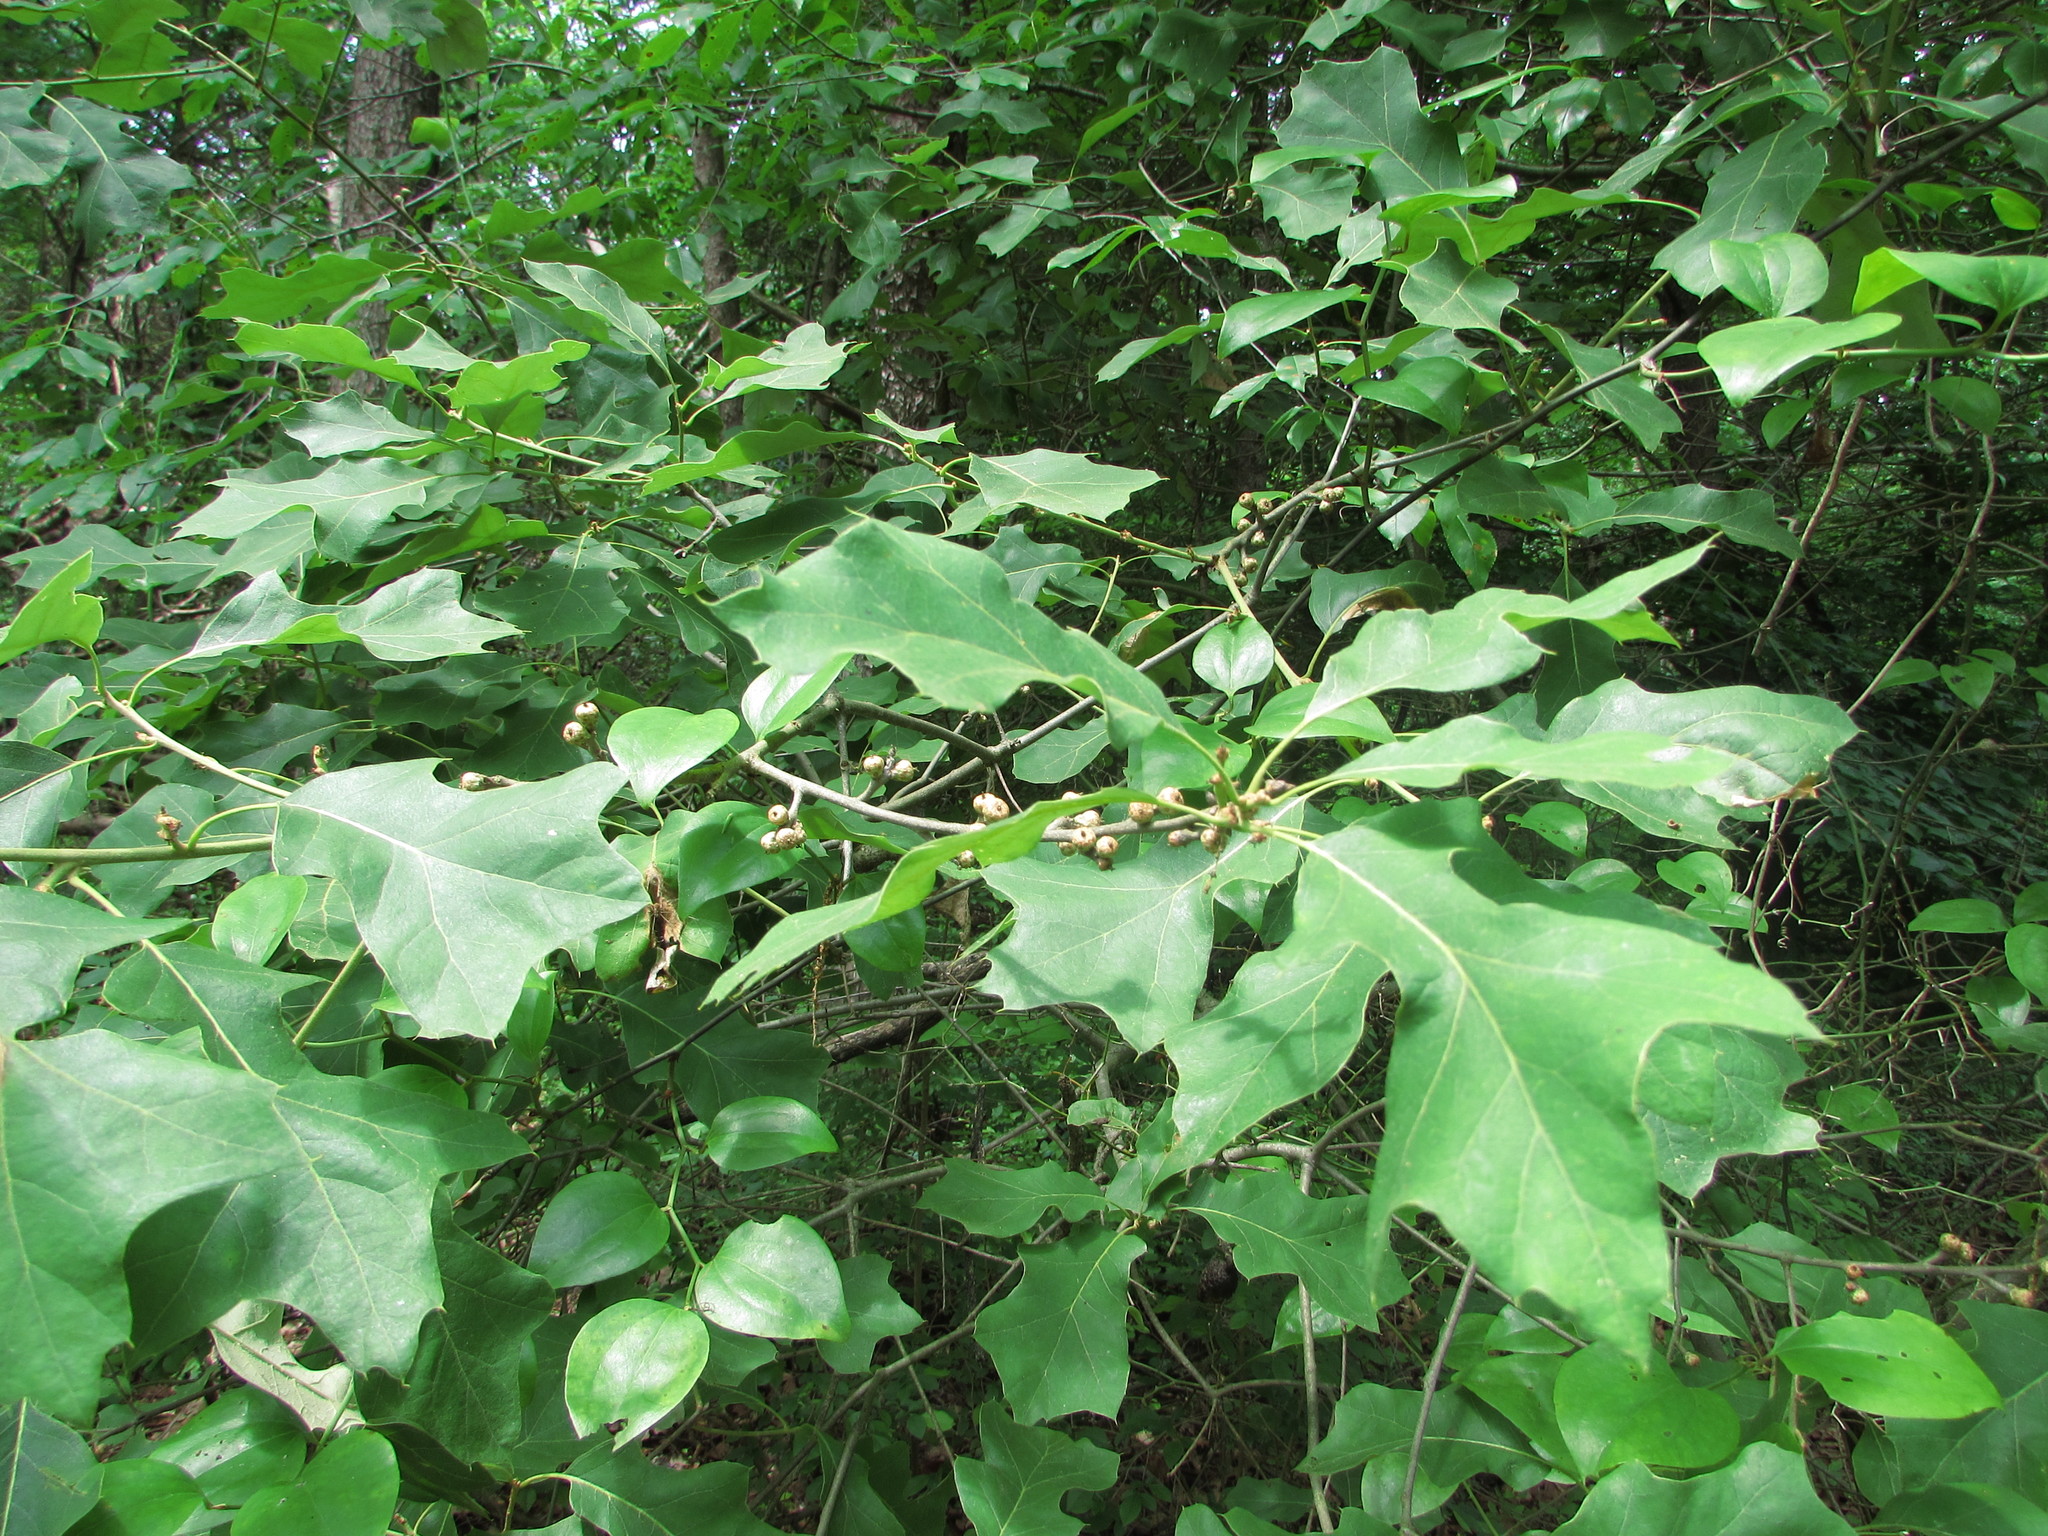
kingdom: Plantae
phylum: Tracheophyta
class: Magnoliopsida
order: Fagales
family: Fagaceae
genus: Quercus
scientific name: Quercus ilicifolia
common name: Bear oak
